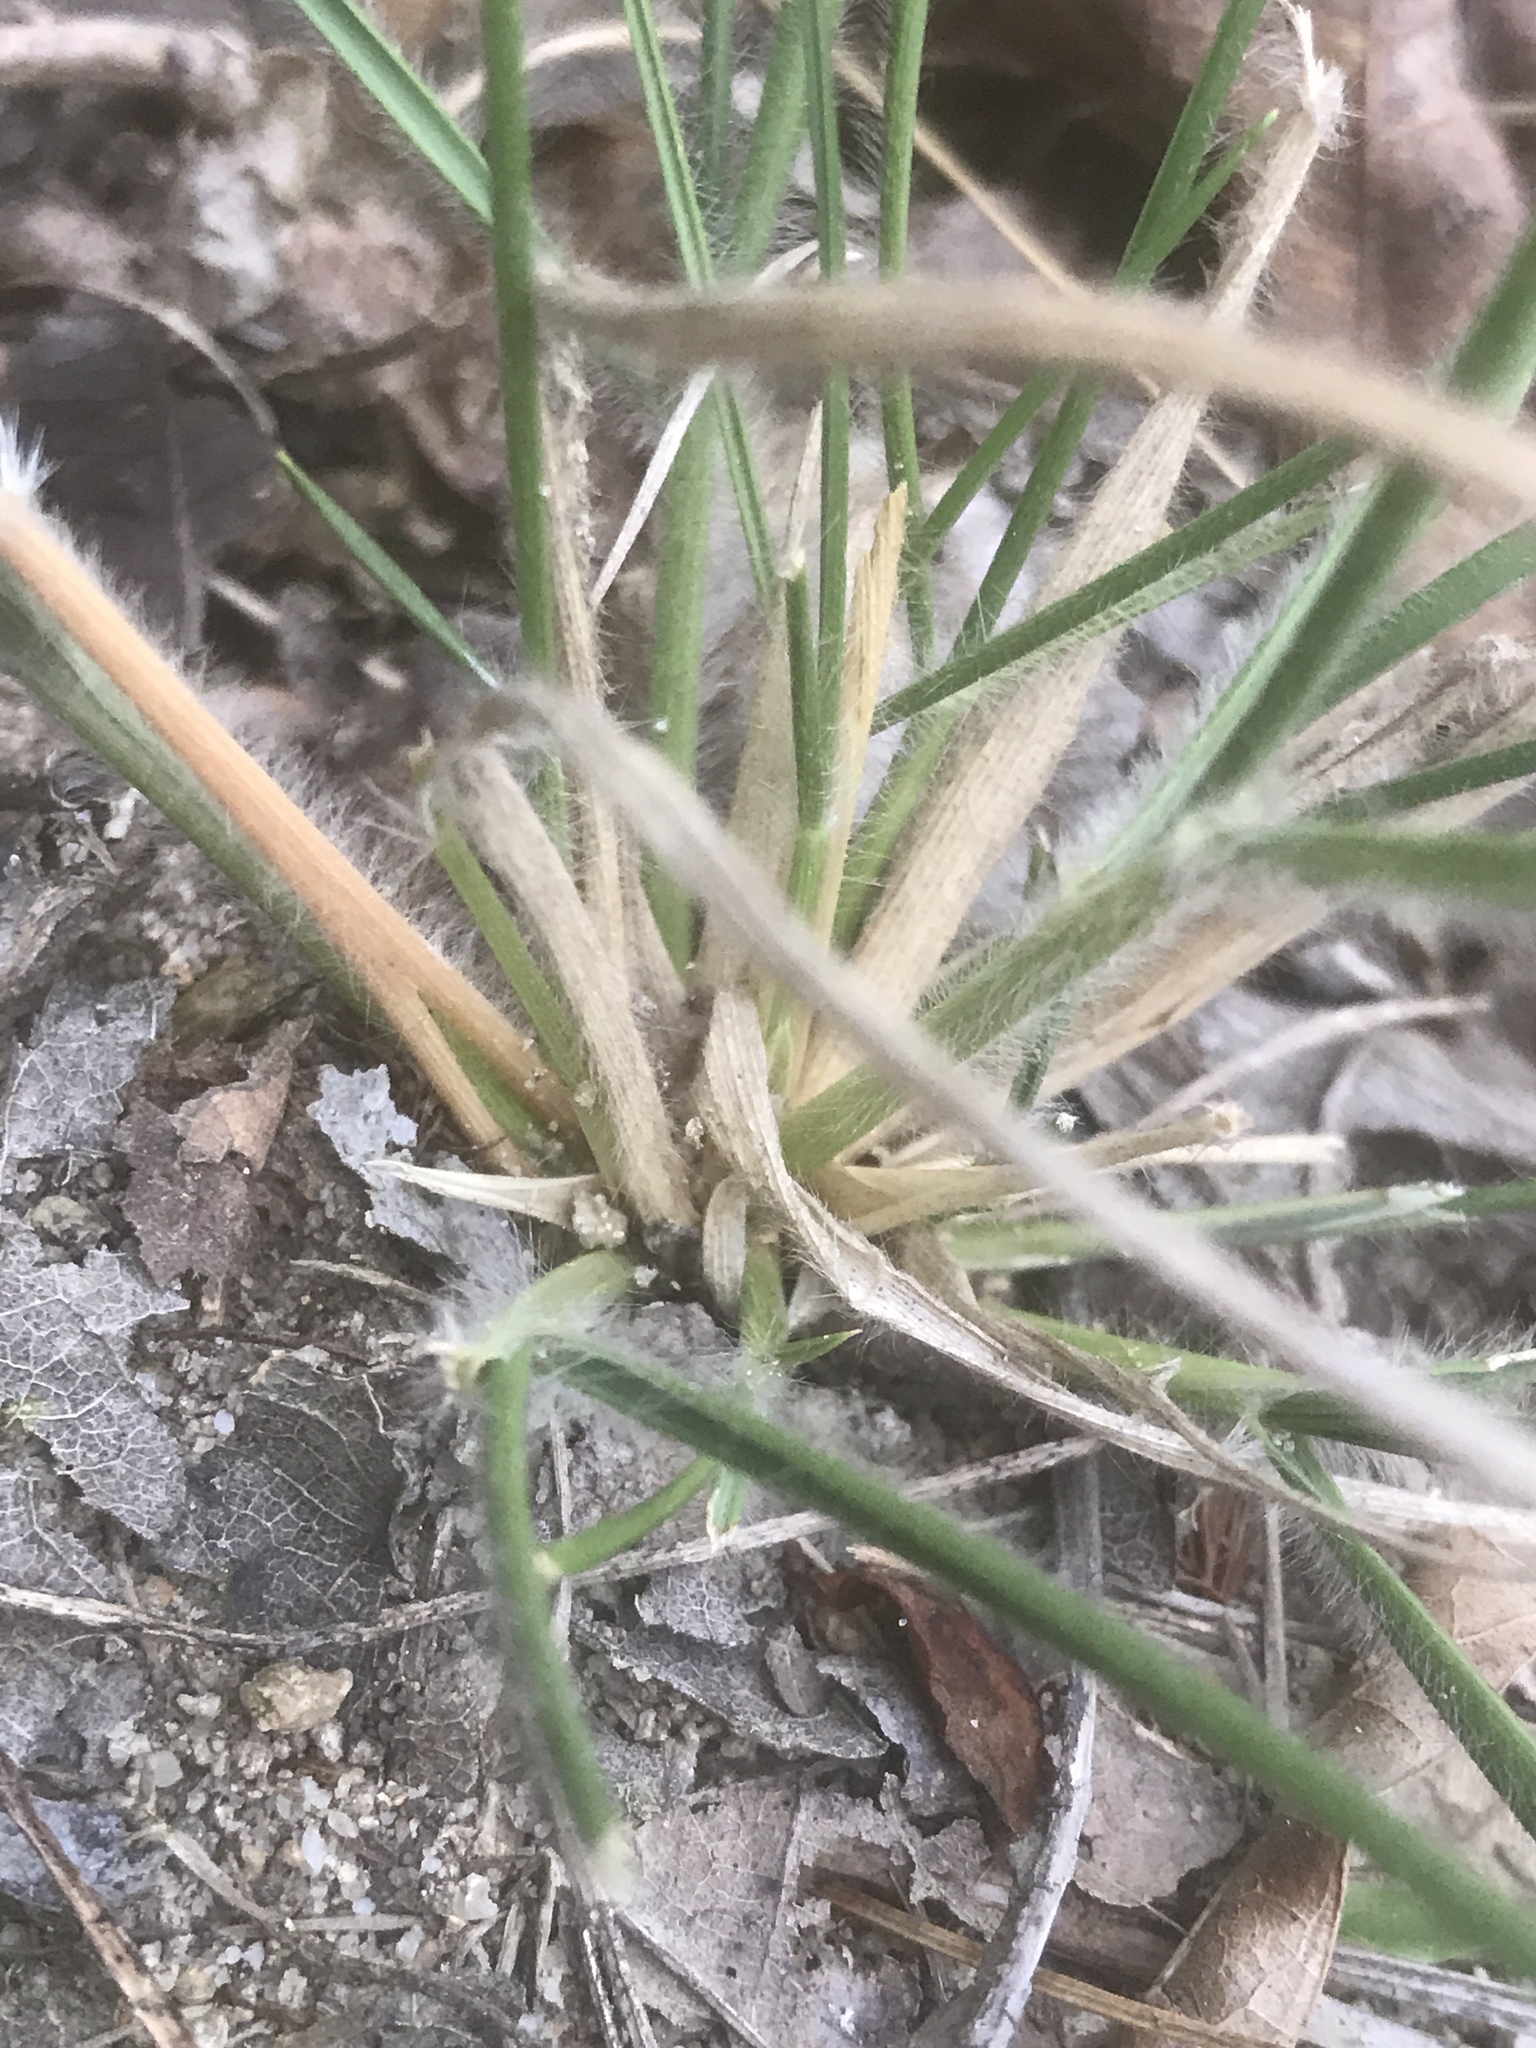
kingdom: Plantae
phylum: Tracheophyta
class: Liliopsida
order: Poales
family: Poaceae
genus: Danthonia
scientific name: Danthonia sericea
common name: Downy danthonia
